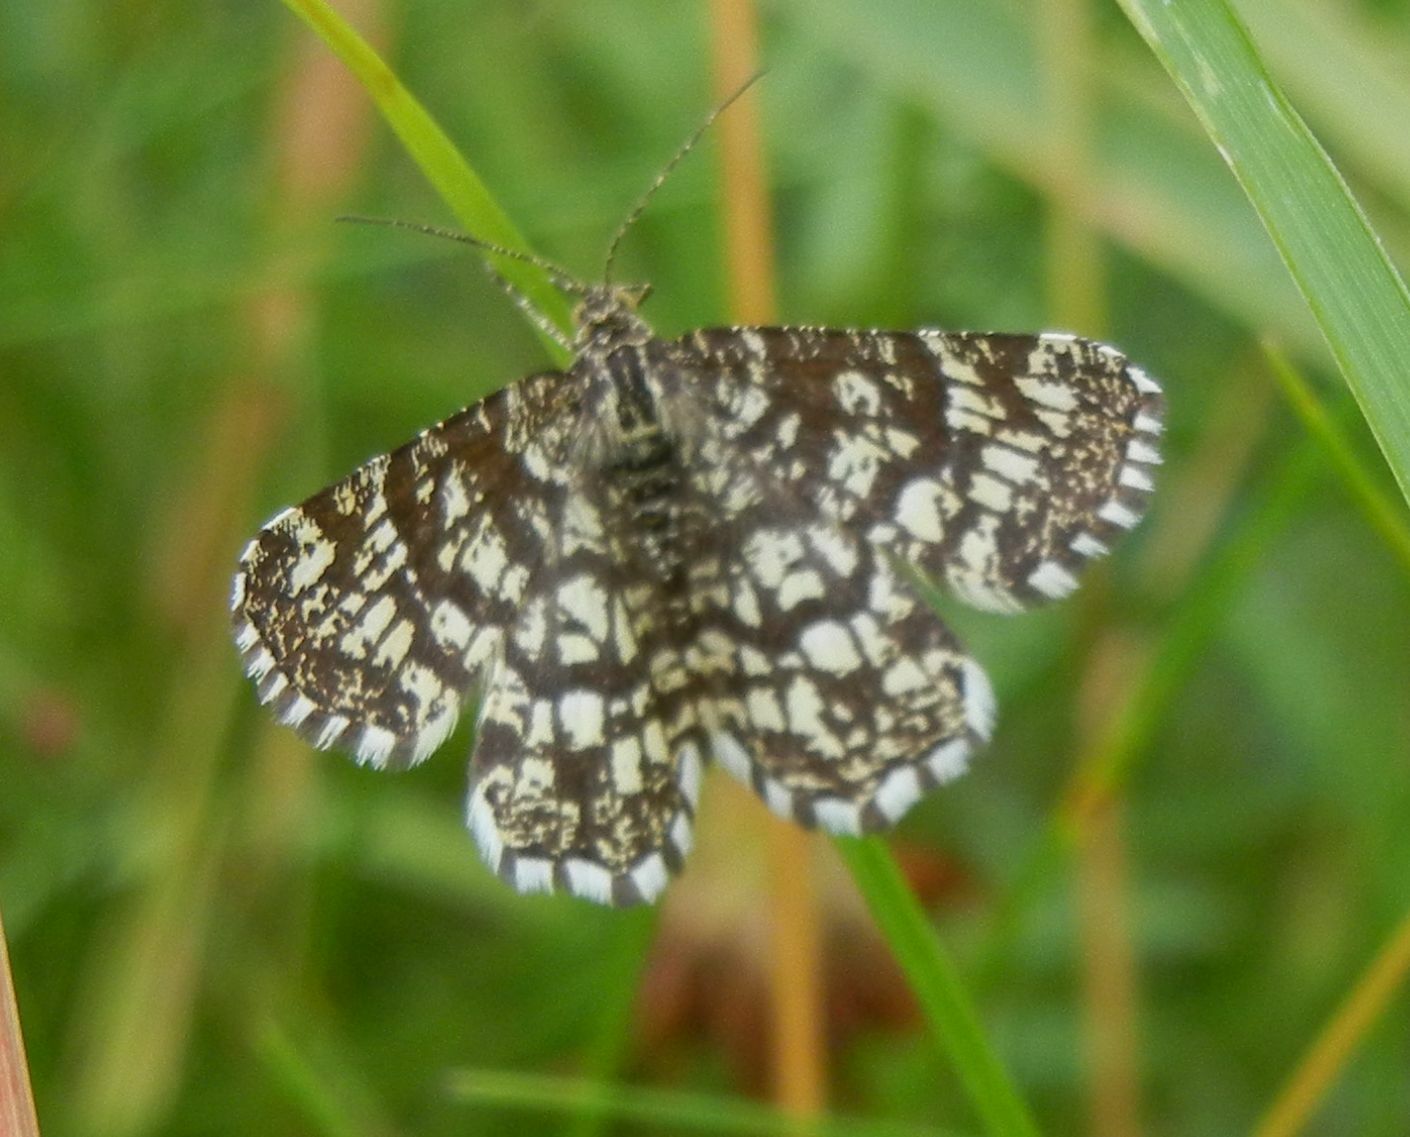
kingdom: Animalia
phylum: Arthropoda
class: Insecta
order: Lepidoptera
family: Geometridae
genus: Chiasmia
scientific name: Chiasmia clathrata
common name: Latticed heath
